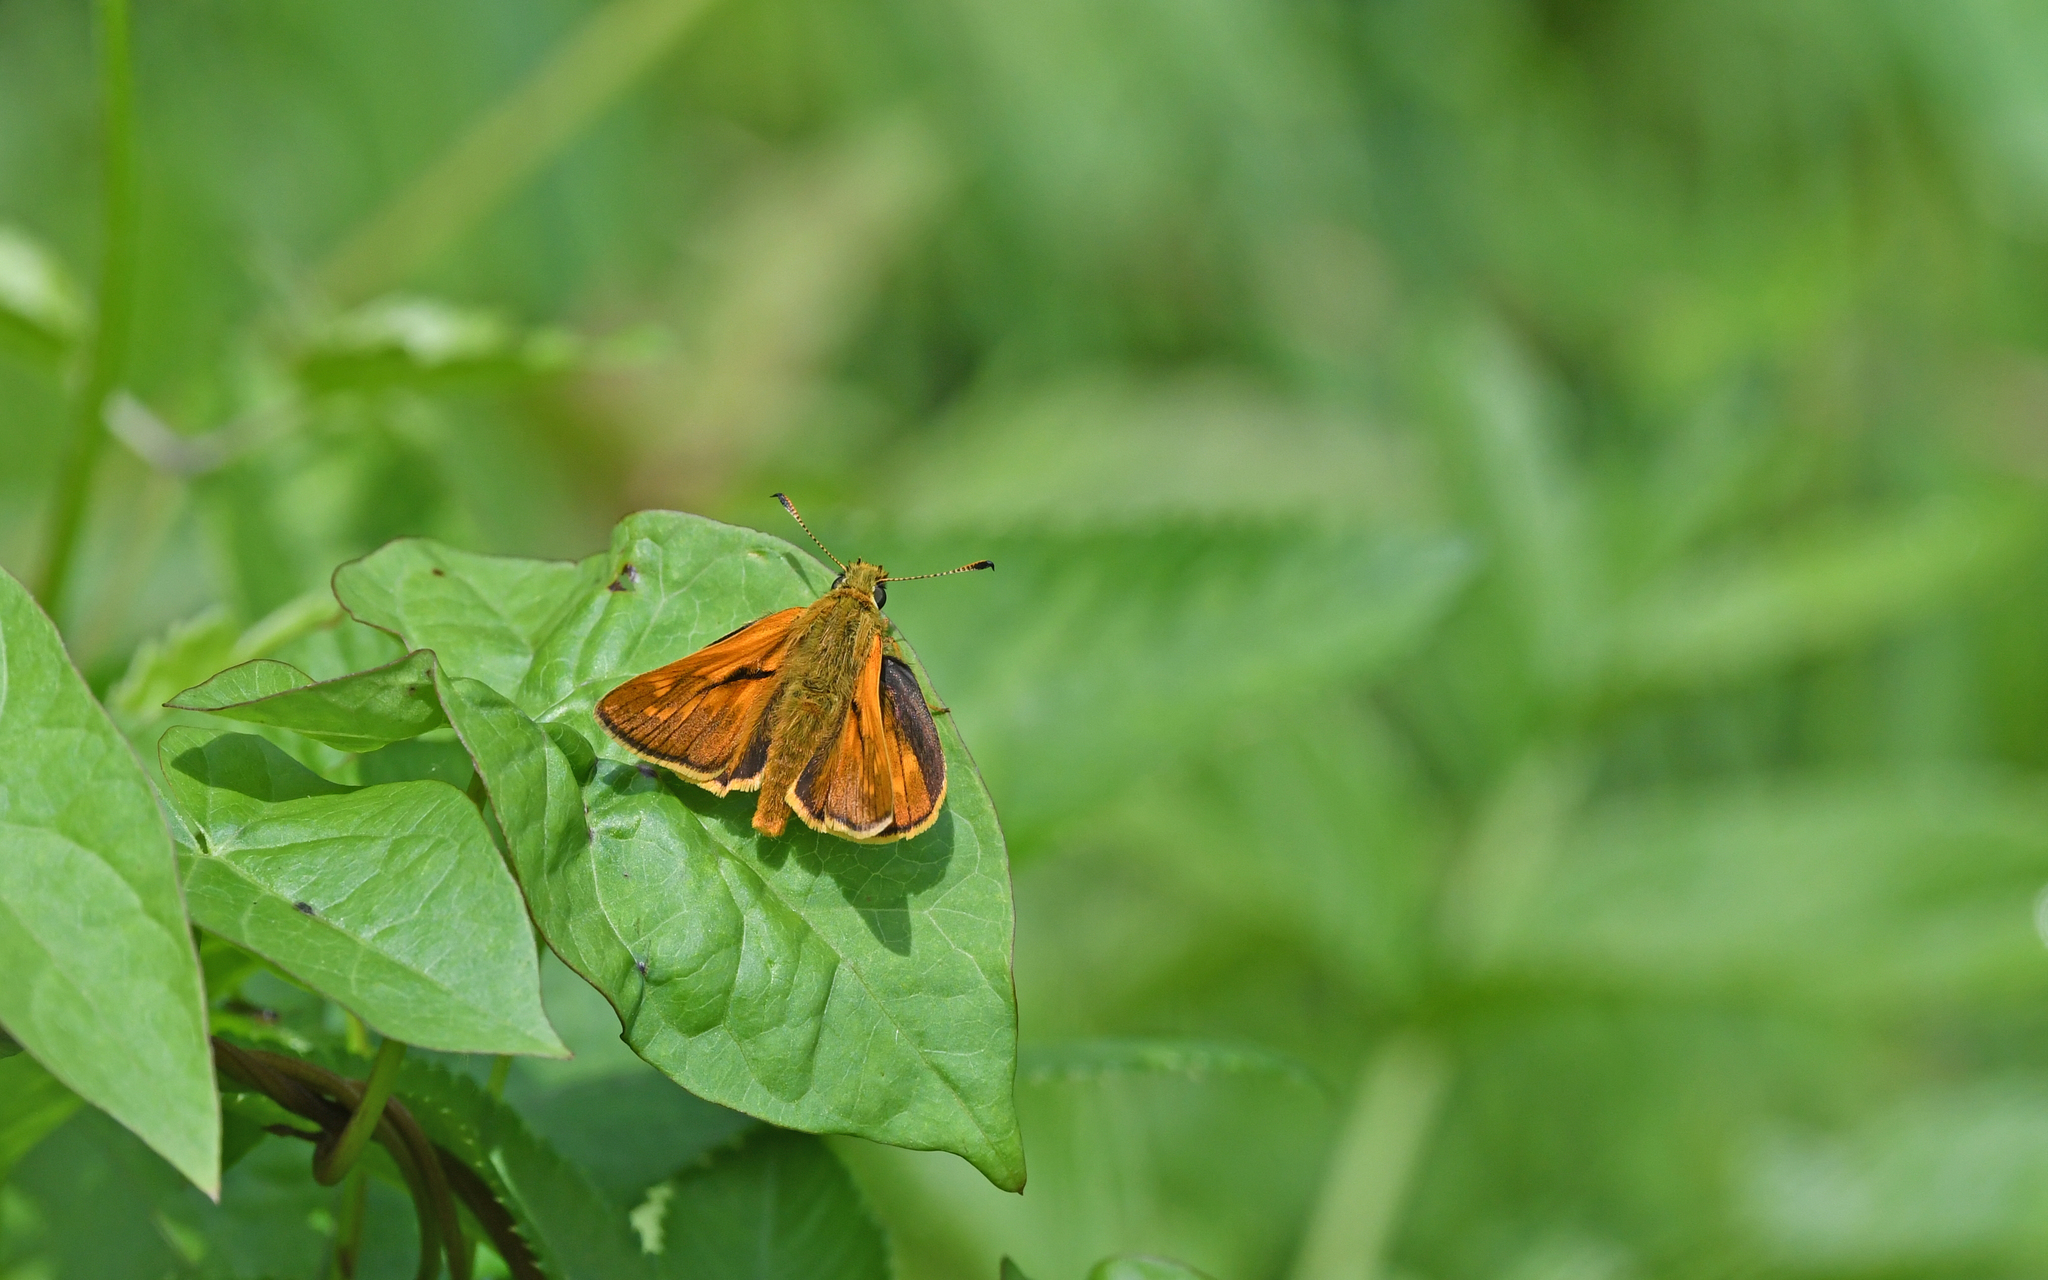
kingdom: Animalia
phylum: Arthropoda
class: Insecta
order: Lepidoptera
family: Hesperiidae
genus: Ochlodes
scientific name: Ochlodes venata
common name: Large skipper
